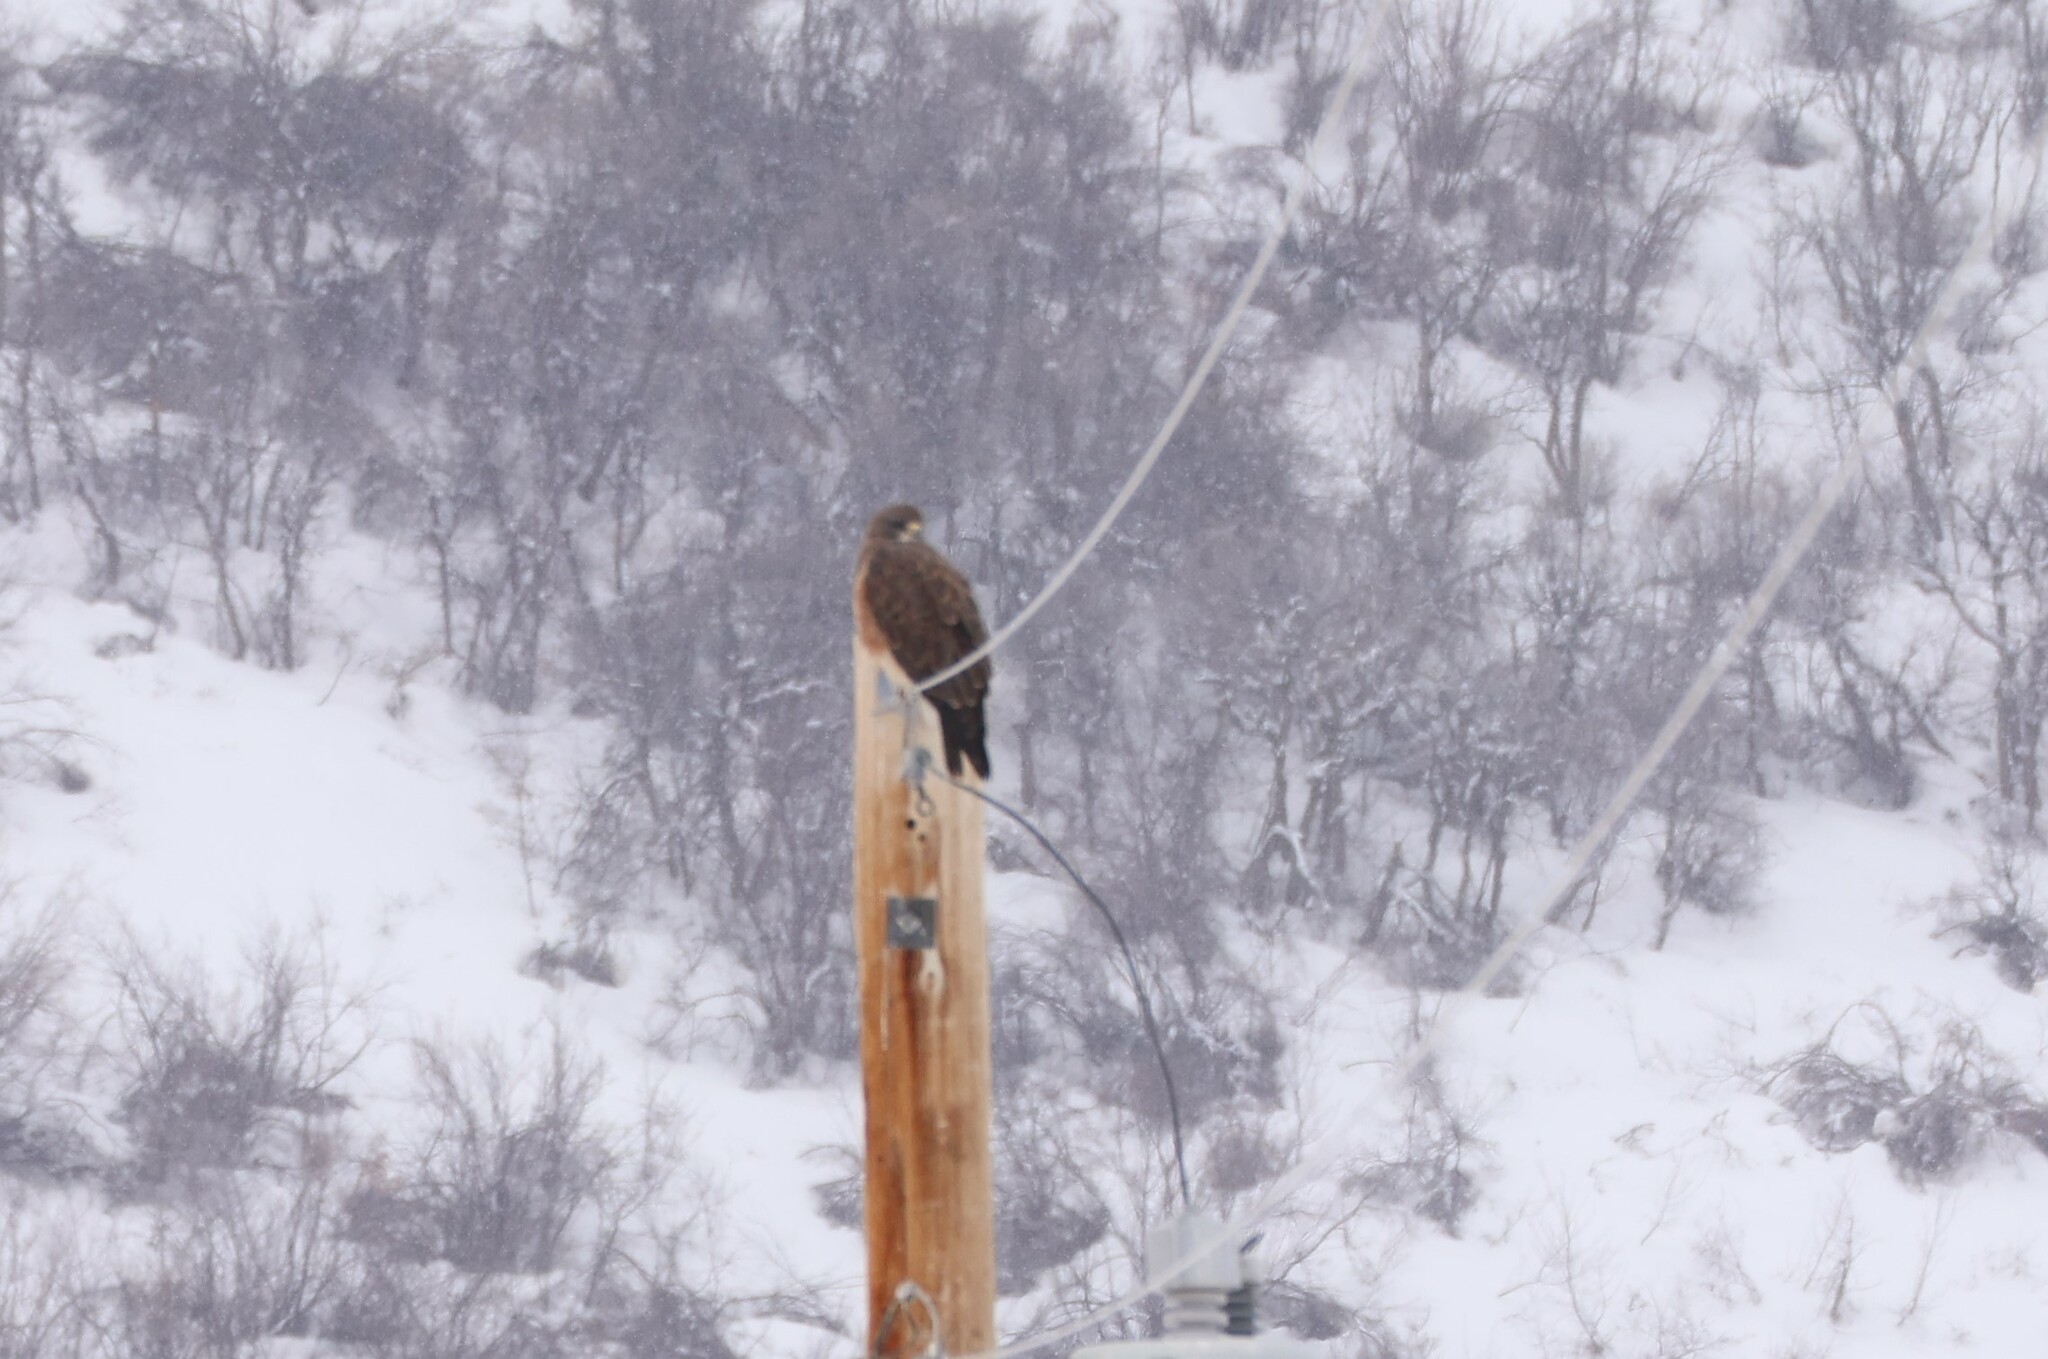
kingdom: Animalia
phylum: Chordata
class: Aves
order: Accipitriformes
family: Accipitridae
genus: Buteo
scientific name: Buteo swainsoni
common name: Swainson's hawk
